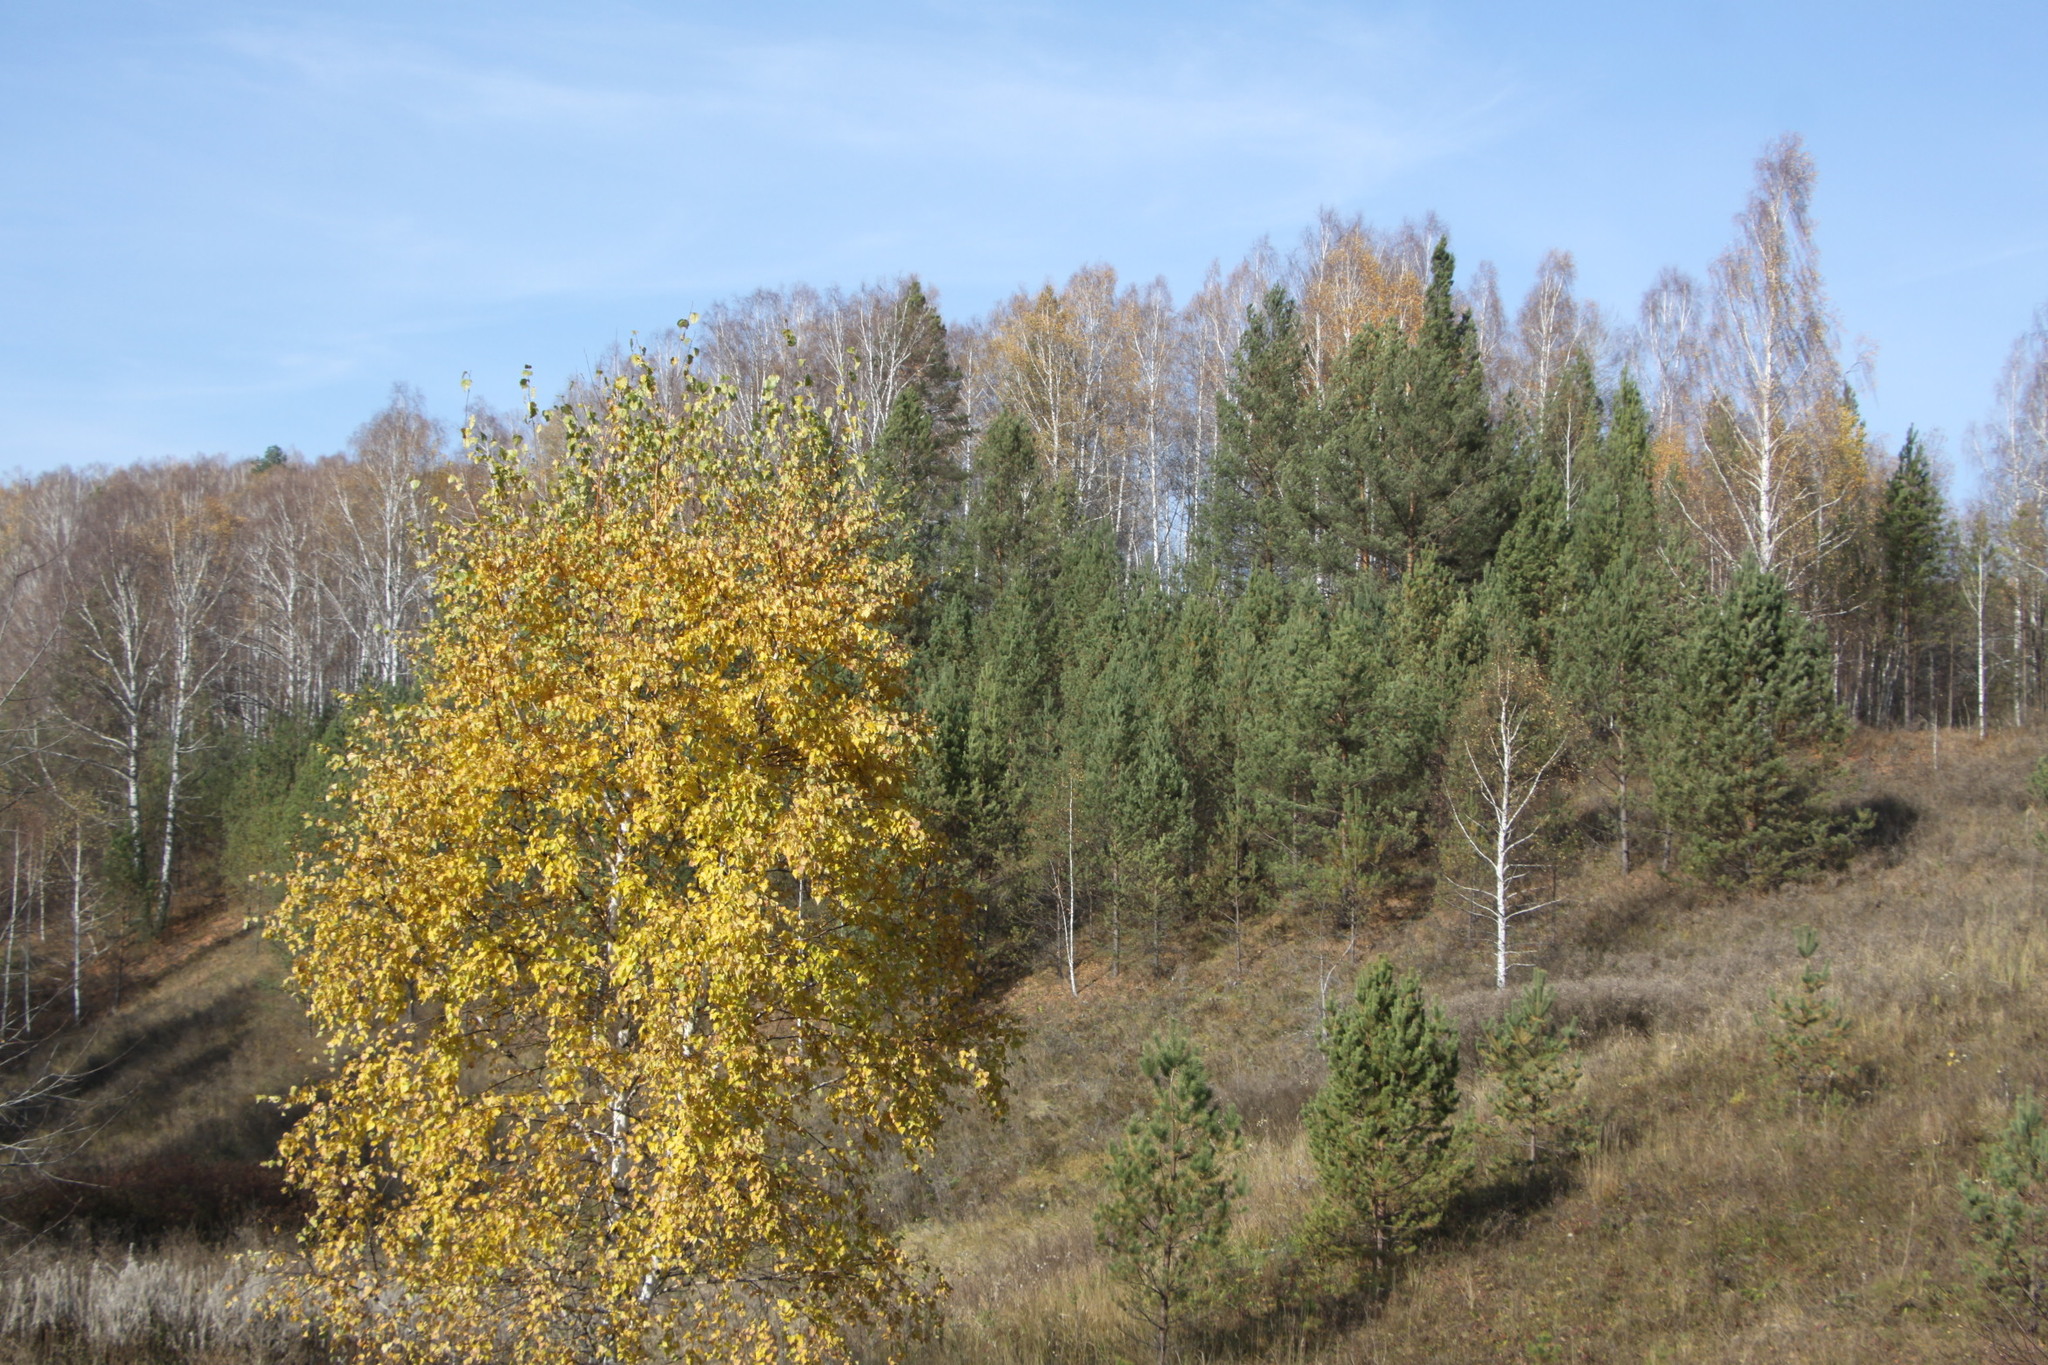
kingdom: Plantae
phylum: Tracheophyta
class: Magnoliopsida
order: Fagales
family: Betulaceae
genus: Betula
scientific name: Betula pendula
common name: Silver birch
